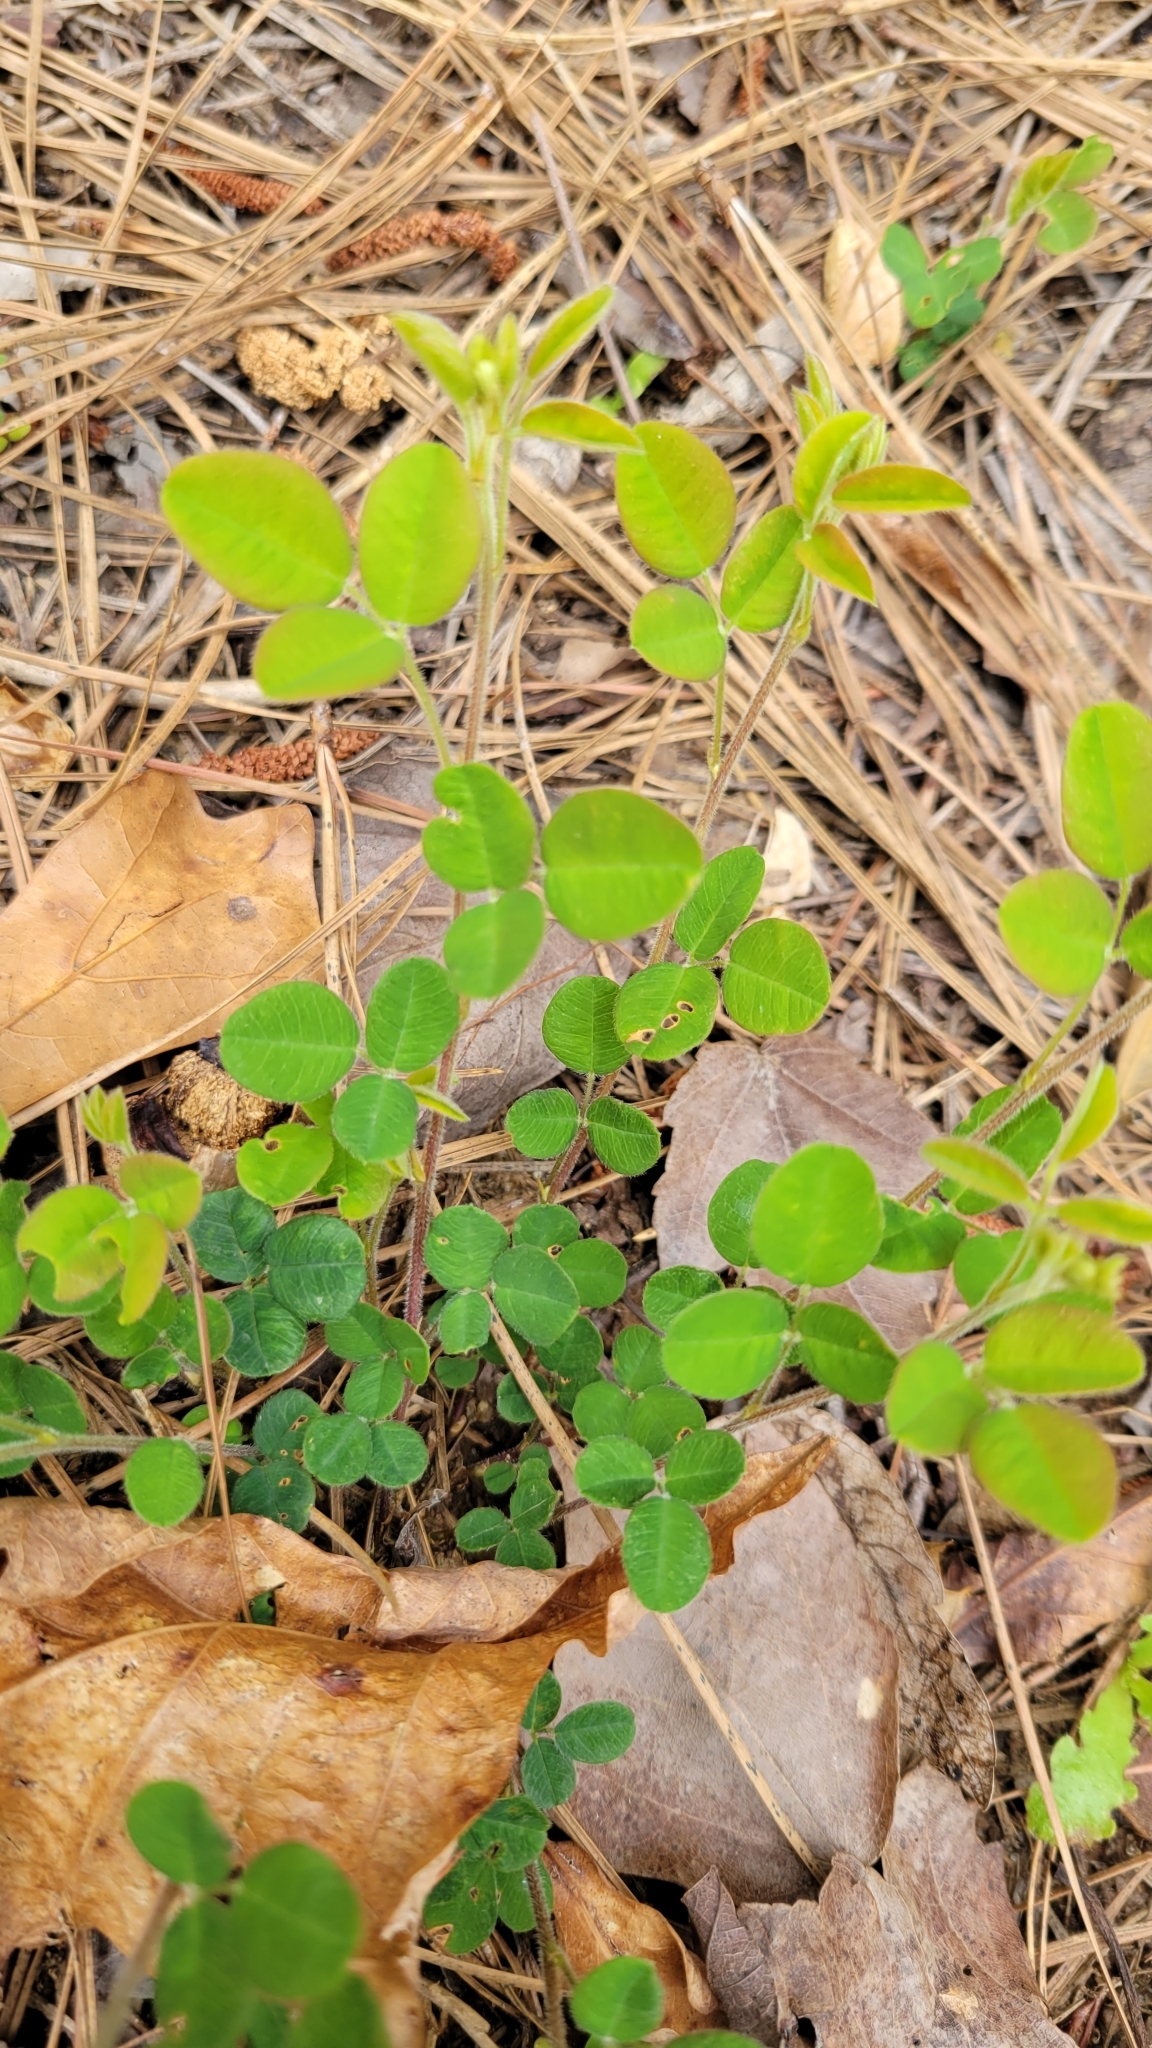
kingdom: Plantae
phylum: Tracheophyta
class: Magnoliopsida
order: Fabales
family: Fabaceae
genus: Lespedeza
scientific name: Lespedeza procumbens
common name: Downy trailing bush-clover
